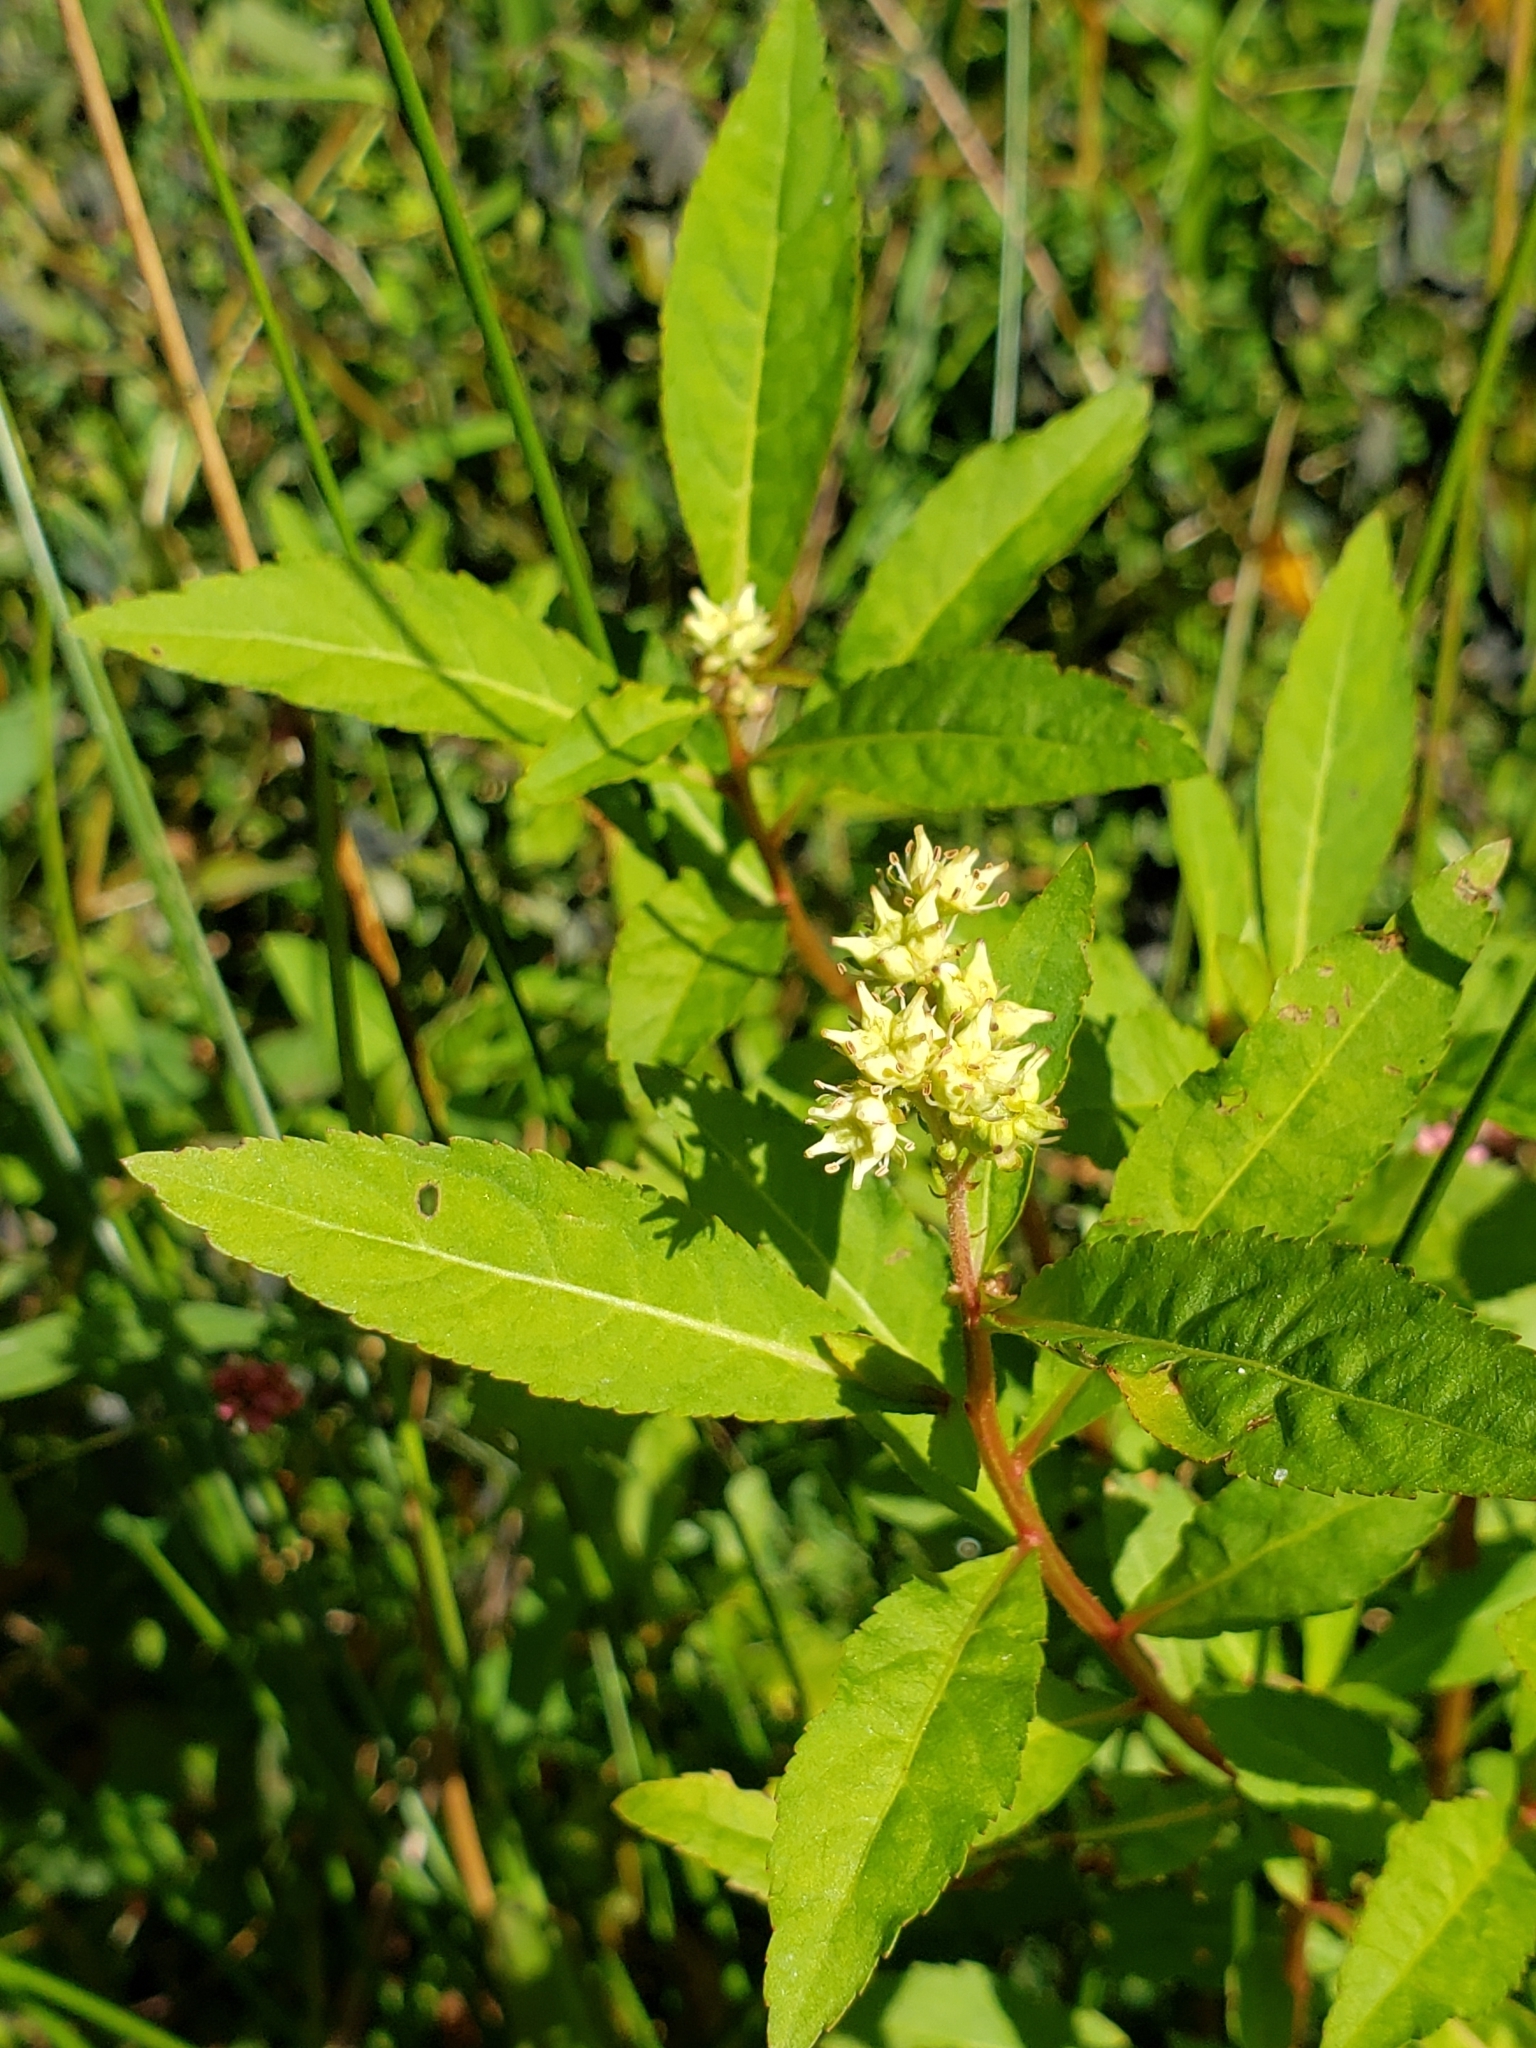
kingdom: Plantae
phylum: Tracheophyta
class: Magnoliopsida
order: Saxifragales
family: Penthoraceae
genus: Penthorum
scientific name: Penthorum sedoides
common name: Ditch stonecrop
